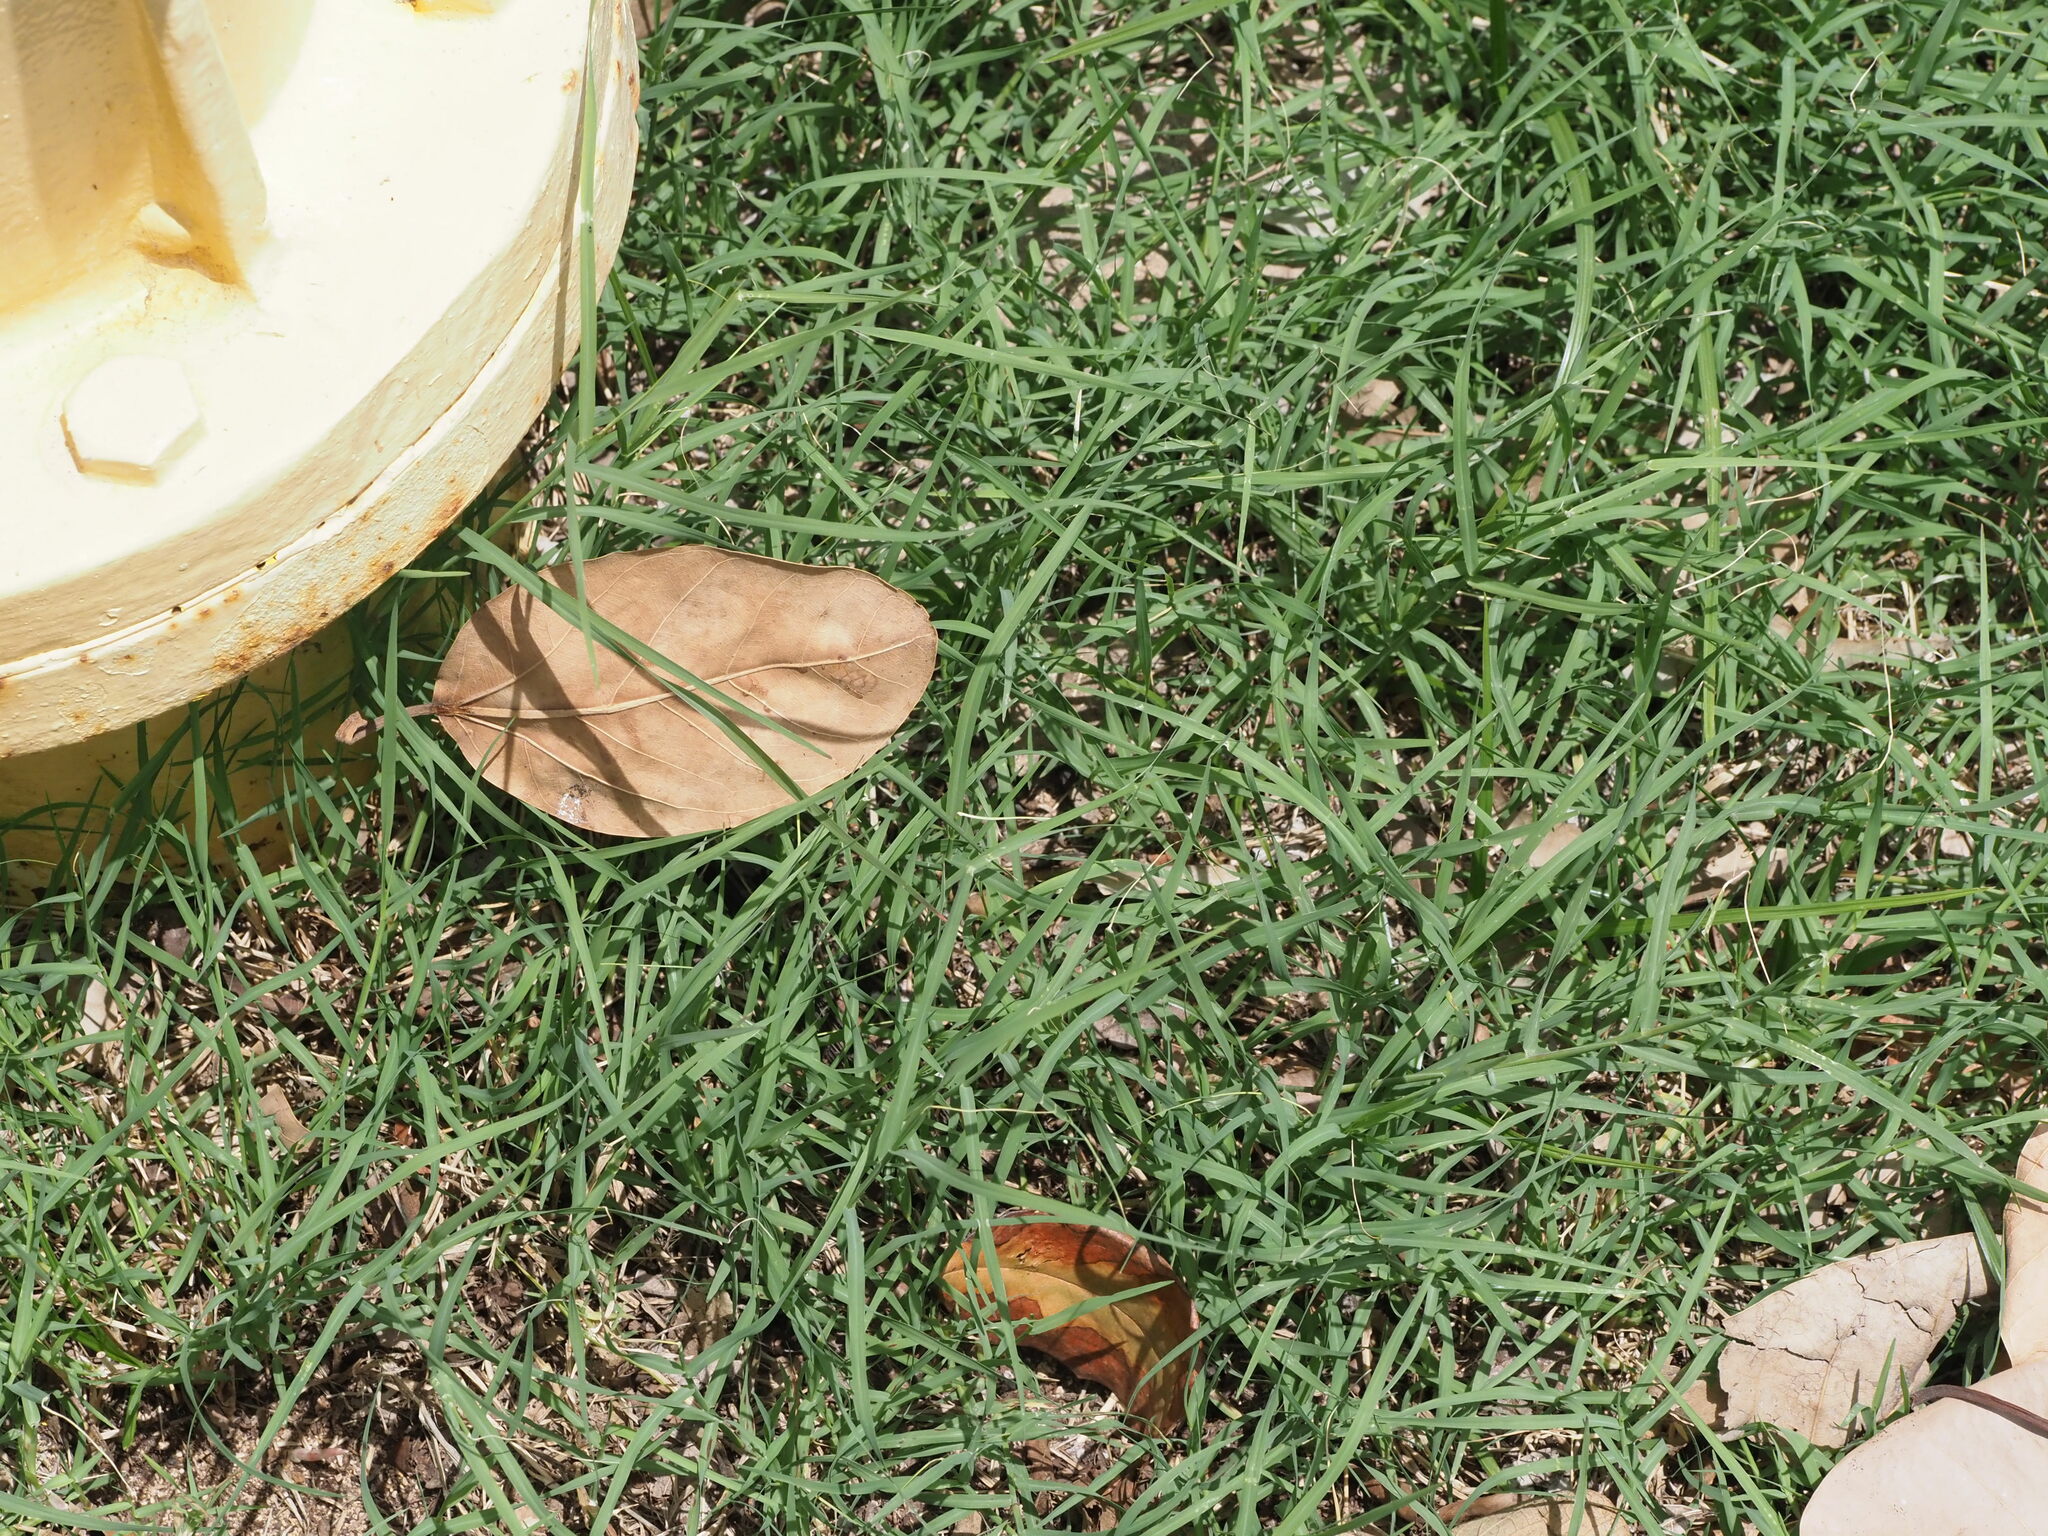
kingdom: Plantae
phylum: Tracheophyta
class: Liliopsida
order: Poales
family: Poaceae
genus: Cynodon
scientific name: Cynodon nlemfuensis
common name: African bermudagrass
